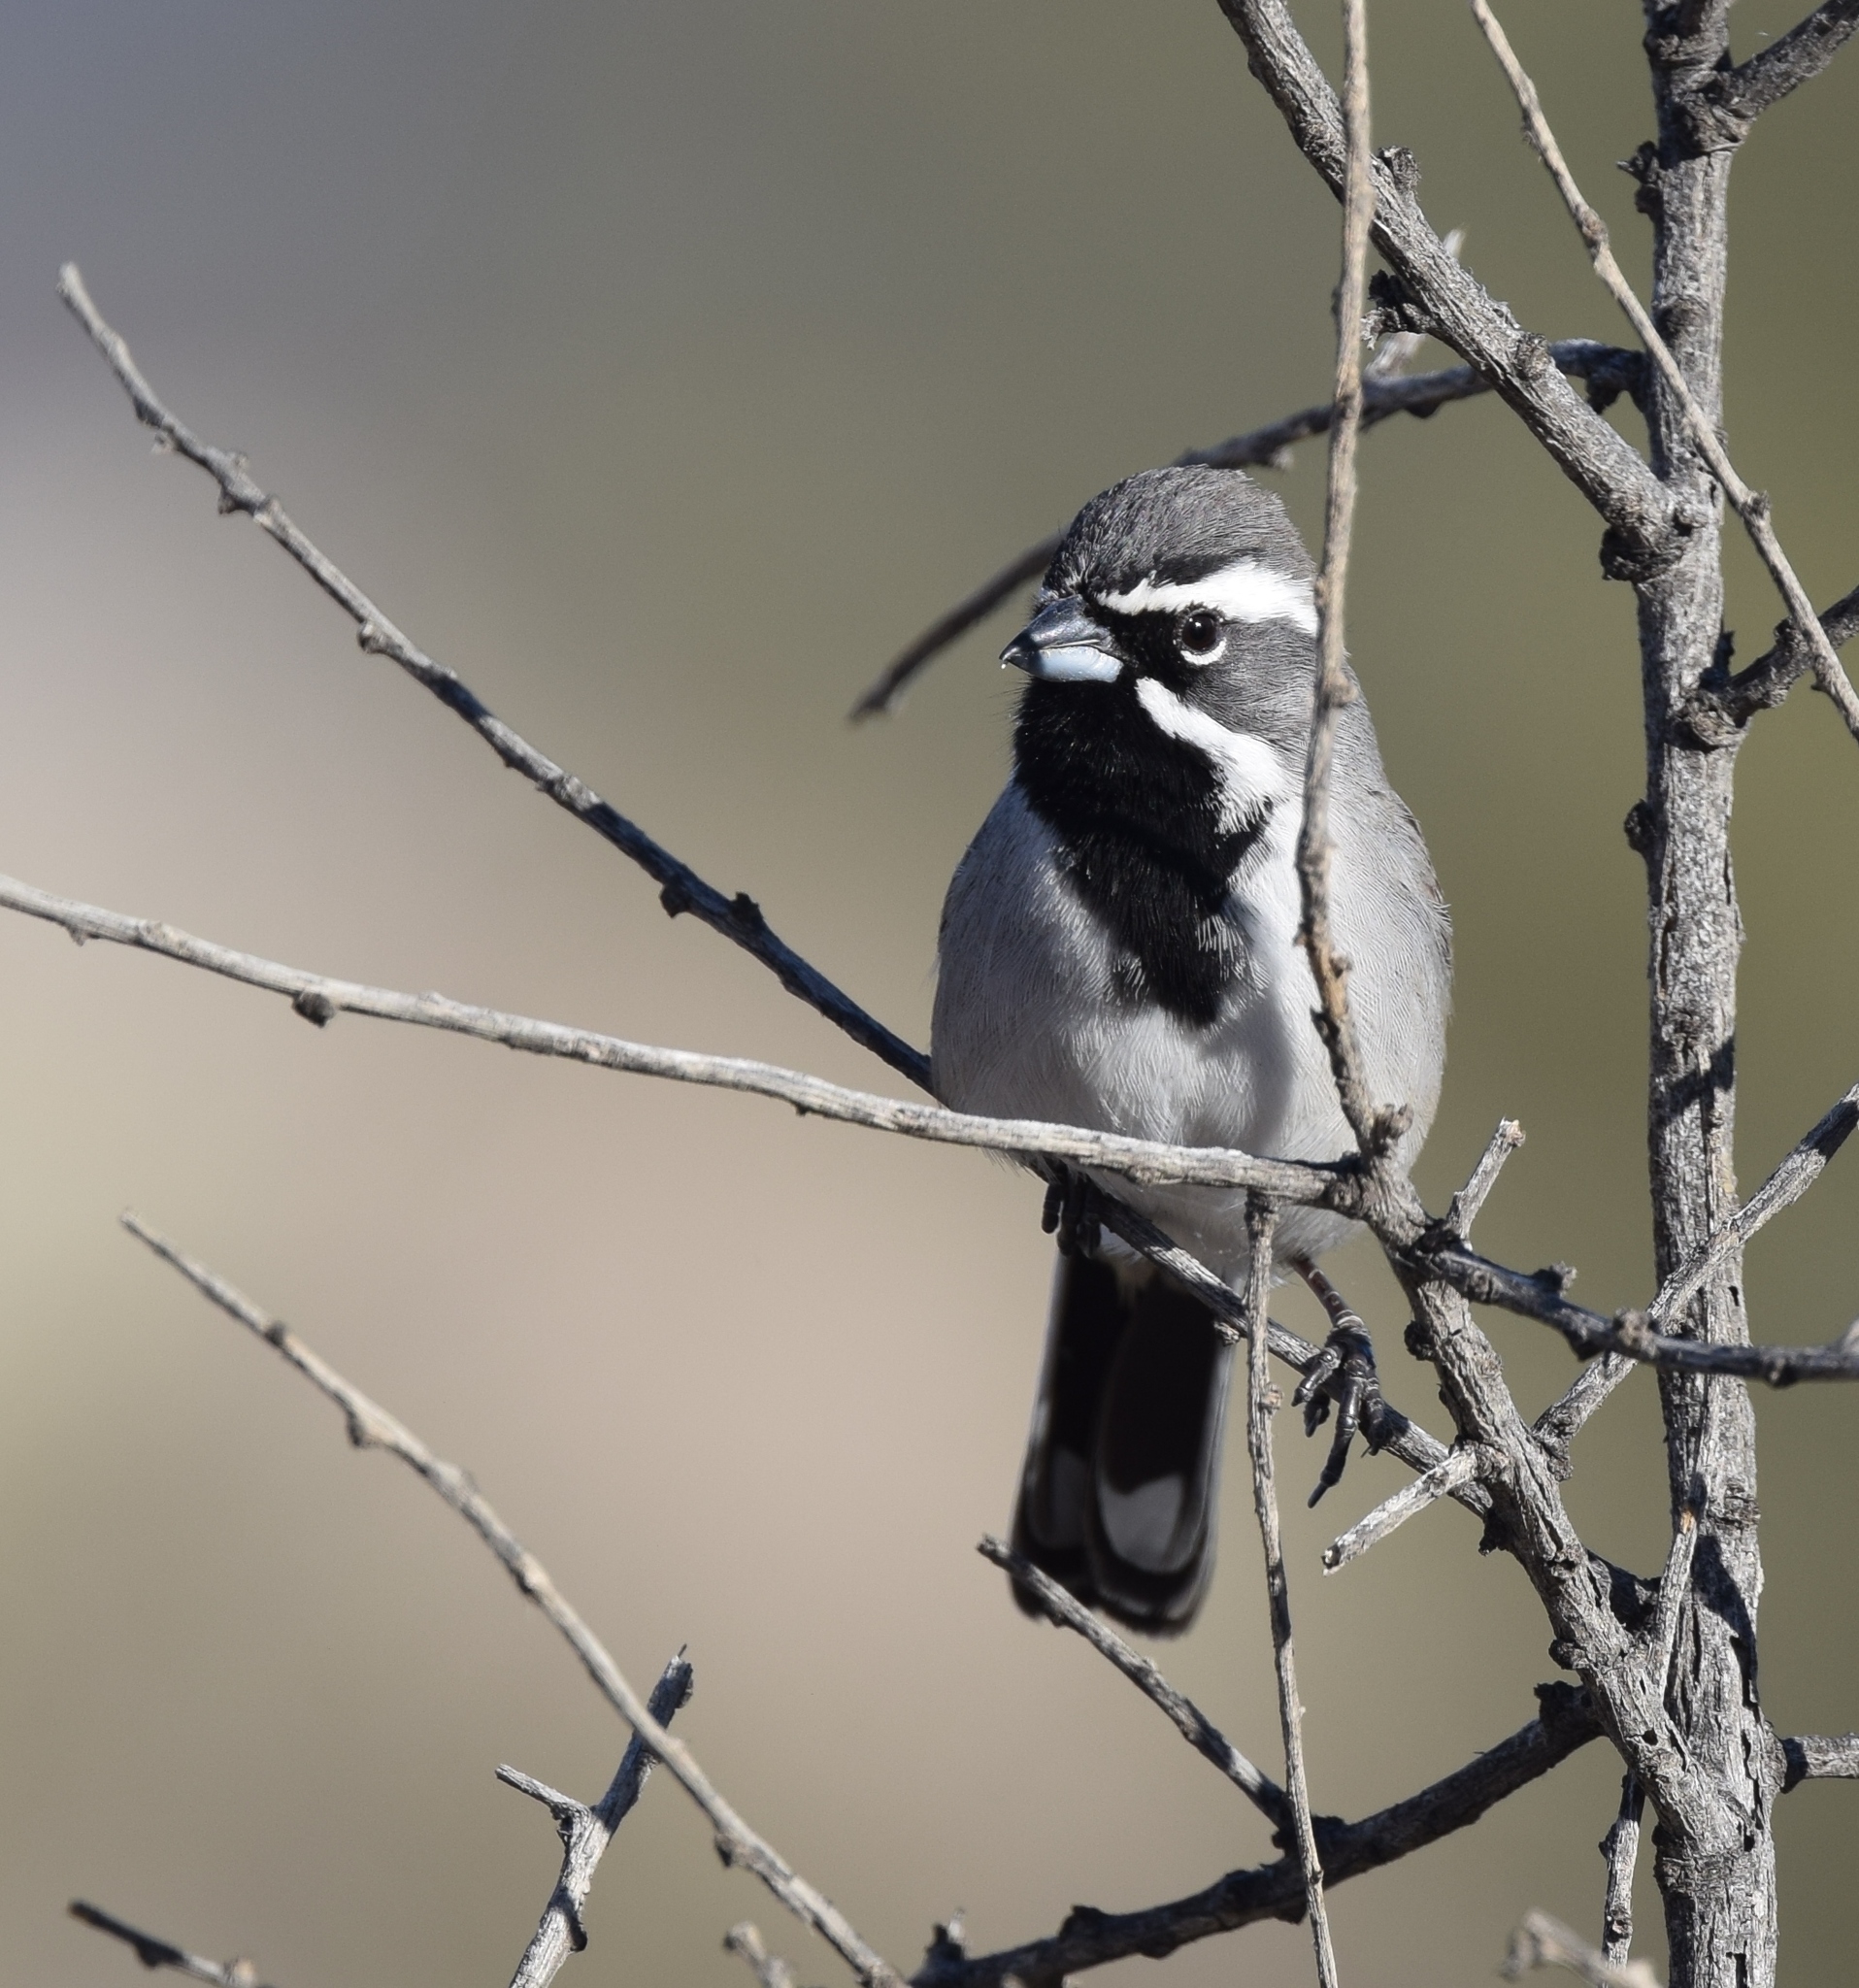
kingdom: Animalia
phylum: Chordata
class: Aves
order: Passeriformes
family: Passerellidae
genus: Amphispiza
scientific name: Amphispiza bilineata
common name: Black-throated sparrow
